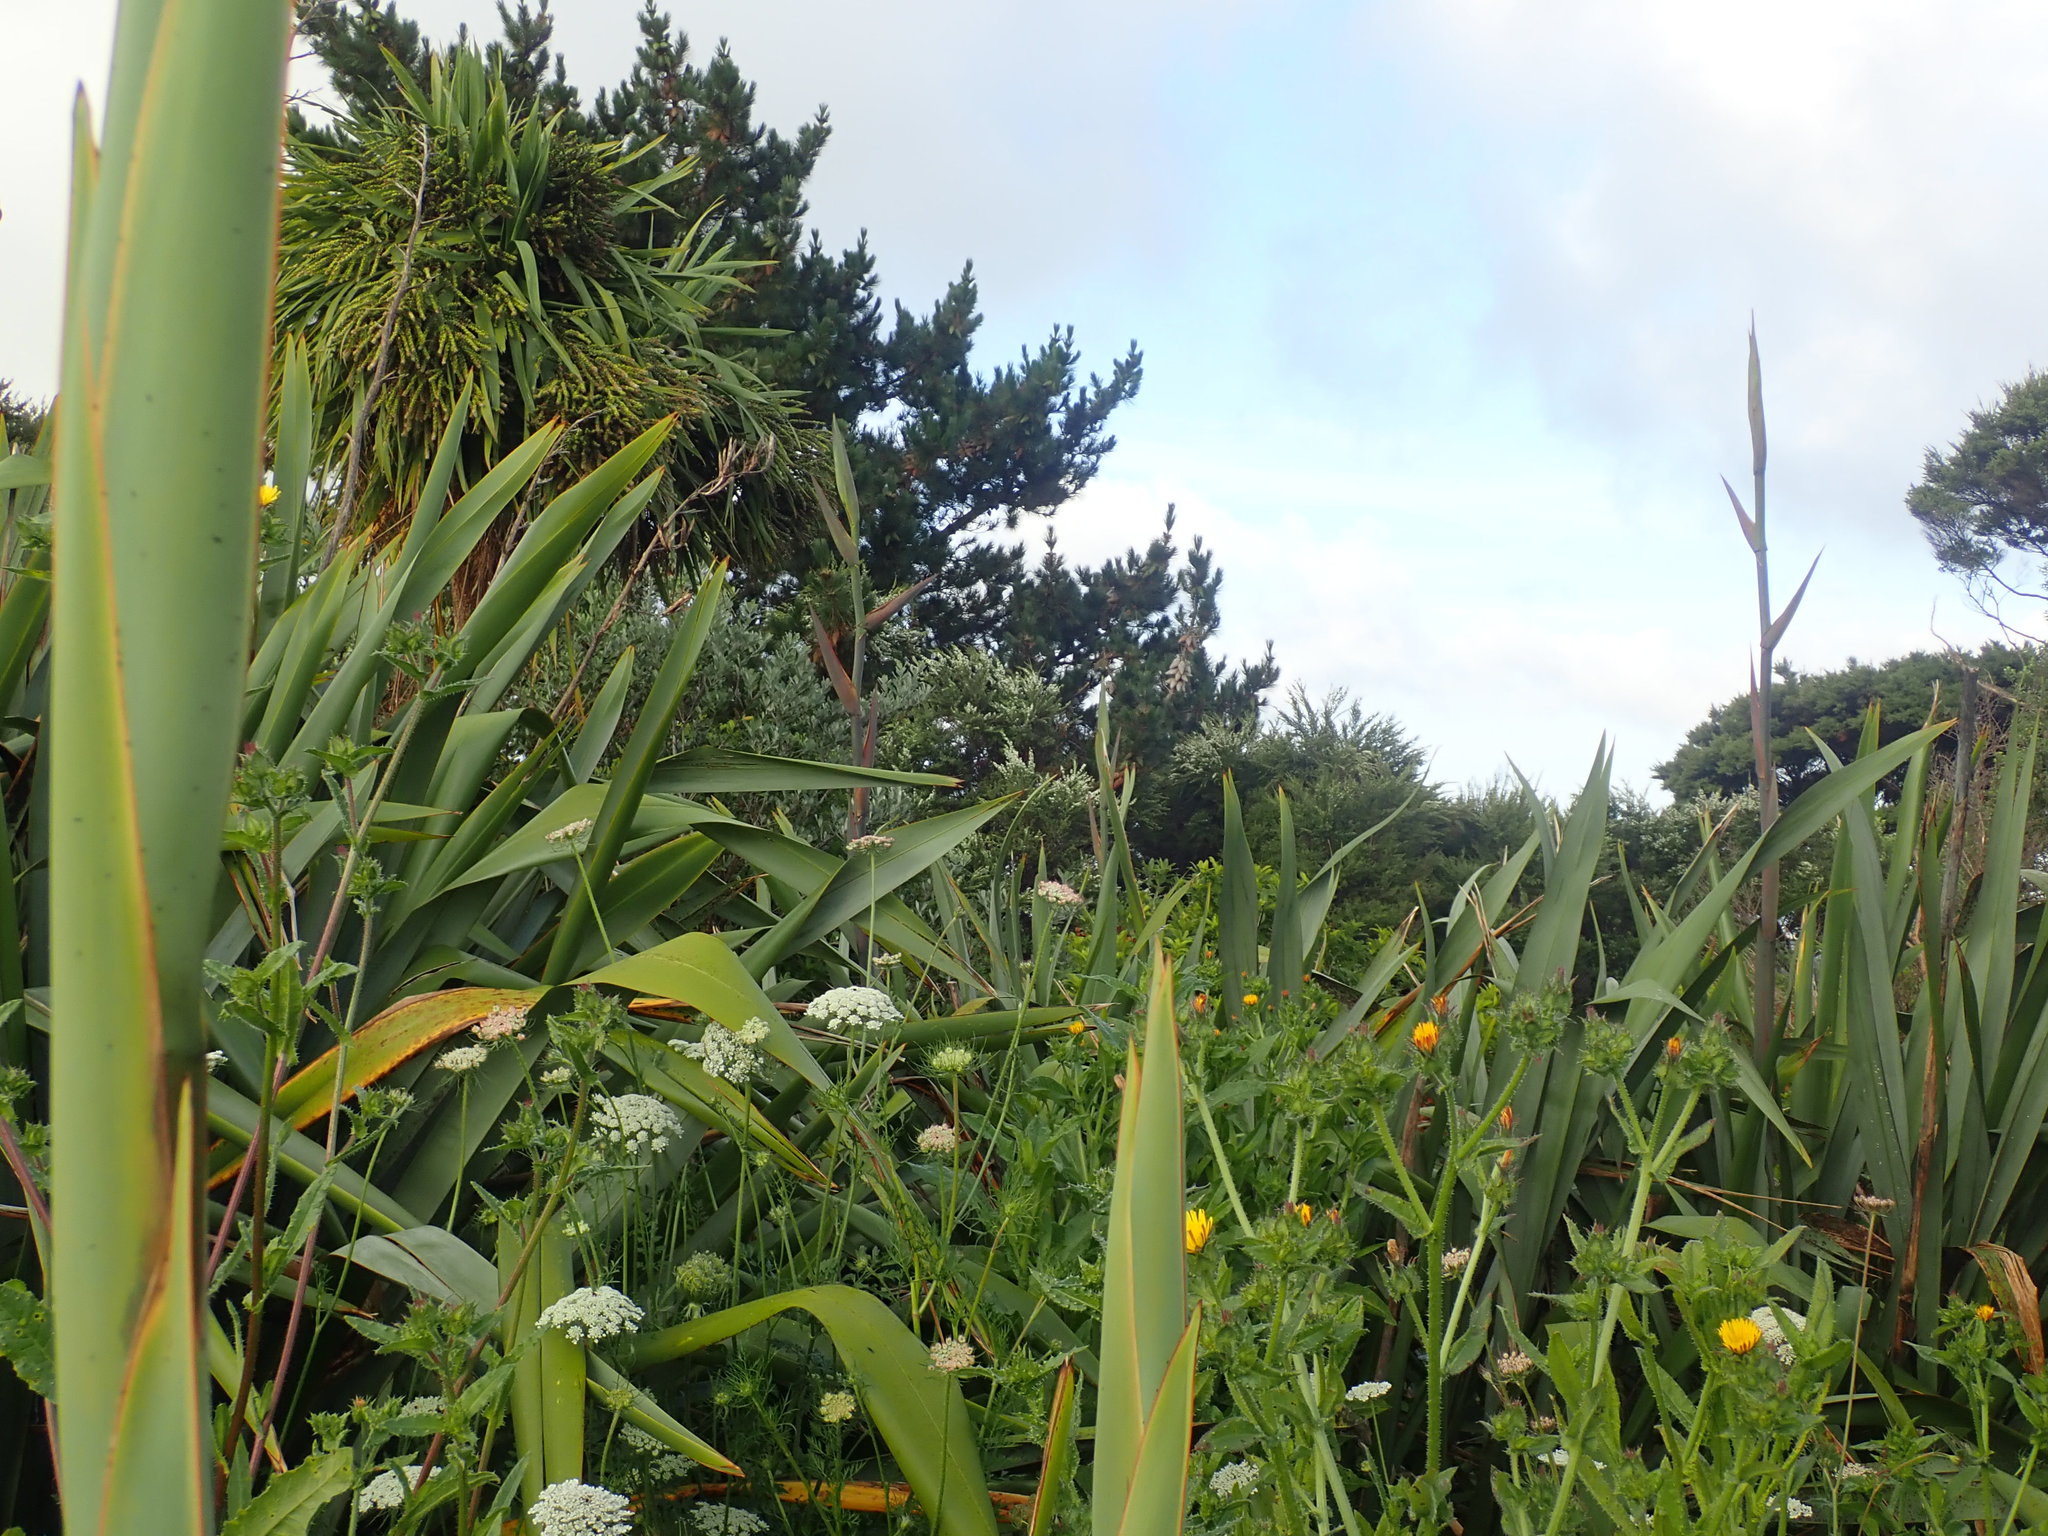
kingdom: Plantae
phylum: Tracheophyta
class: Liliopsida
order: Asparagales
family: Asparagaceae
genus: Cordyline
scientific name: Cordyline australis
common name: Cabbage-palm
